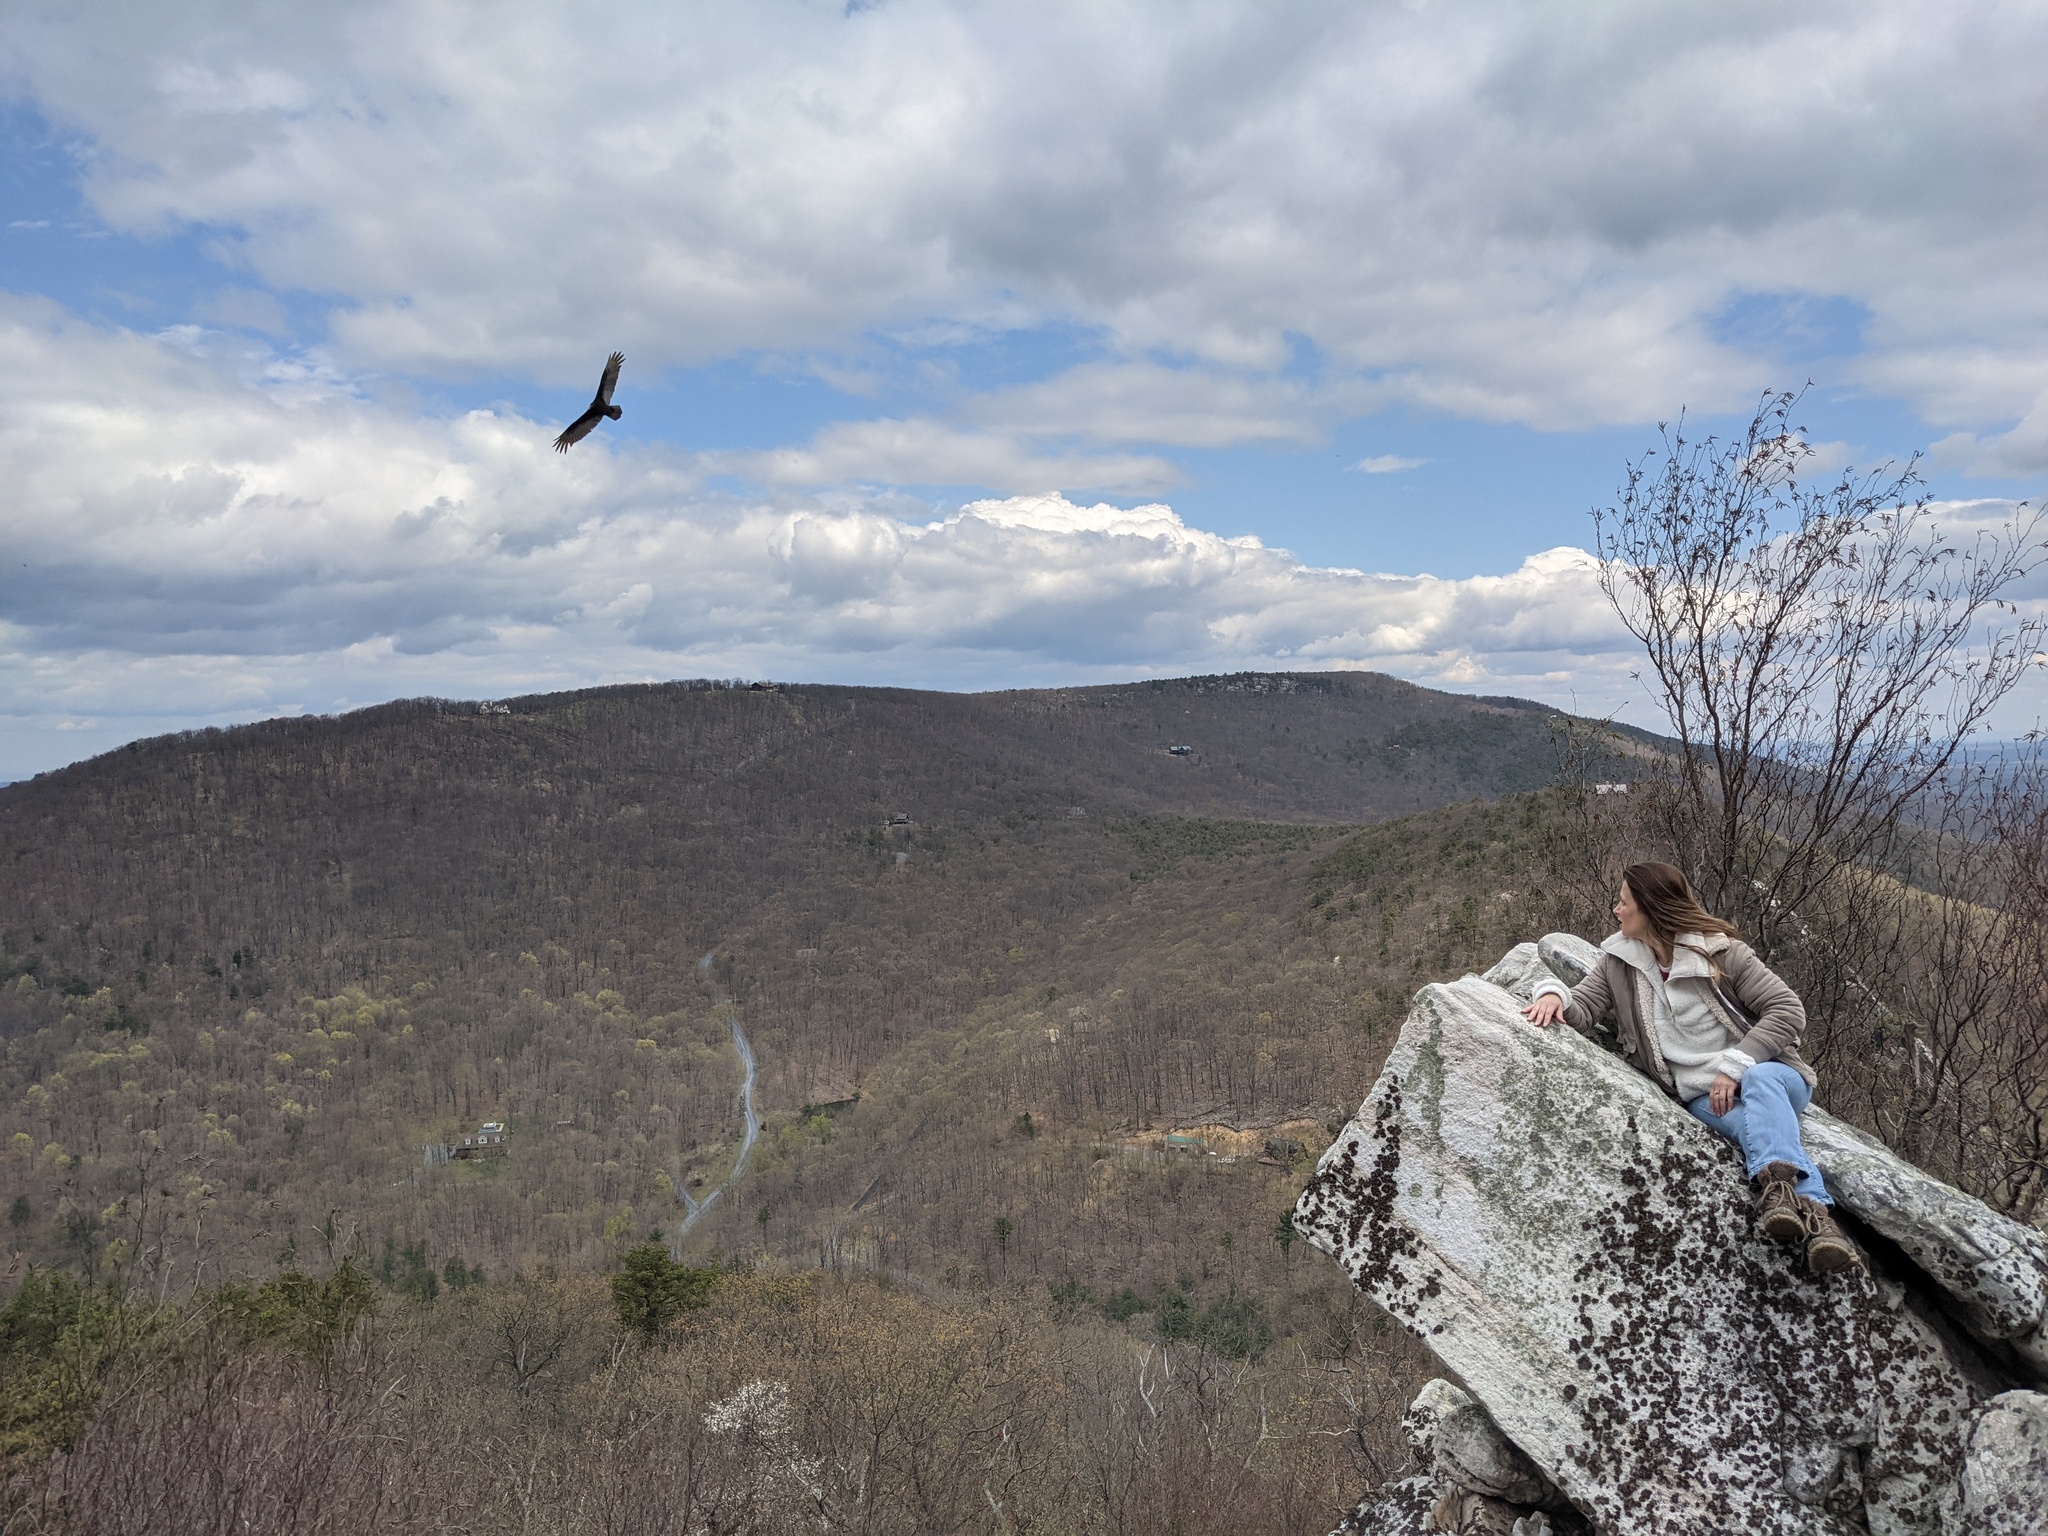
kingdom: Animalia
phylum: Chordata
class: Aves
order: Accipitriformes
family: Cathartidae
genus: Cathartes
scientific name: Cathartes aura
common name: Turkey vulture
